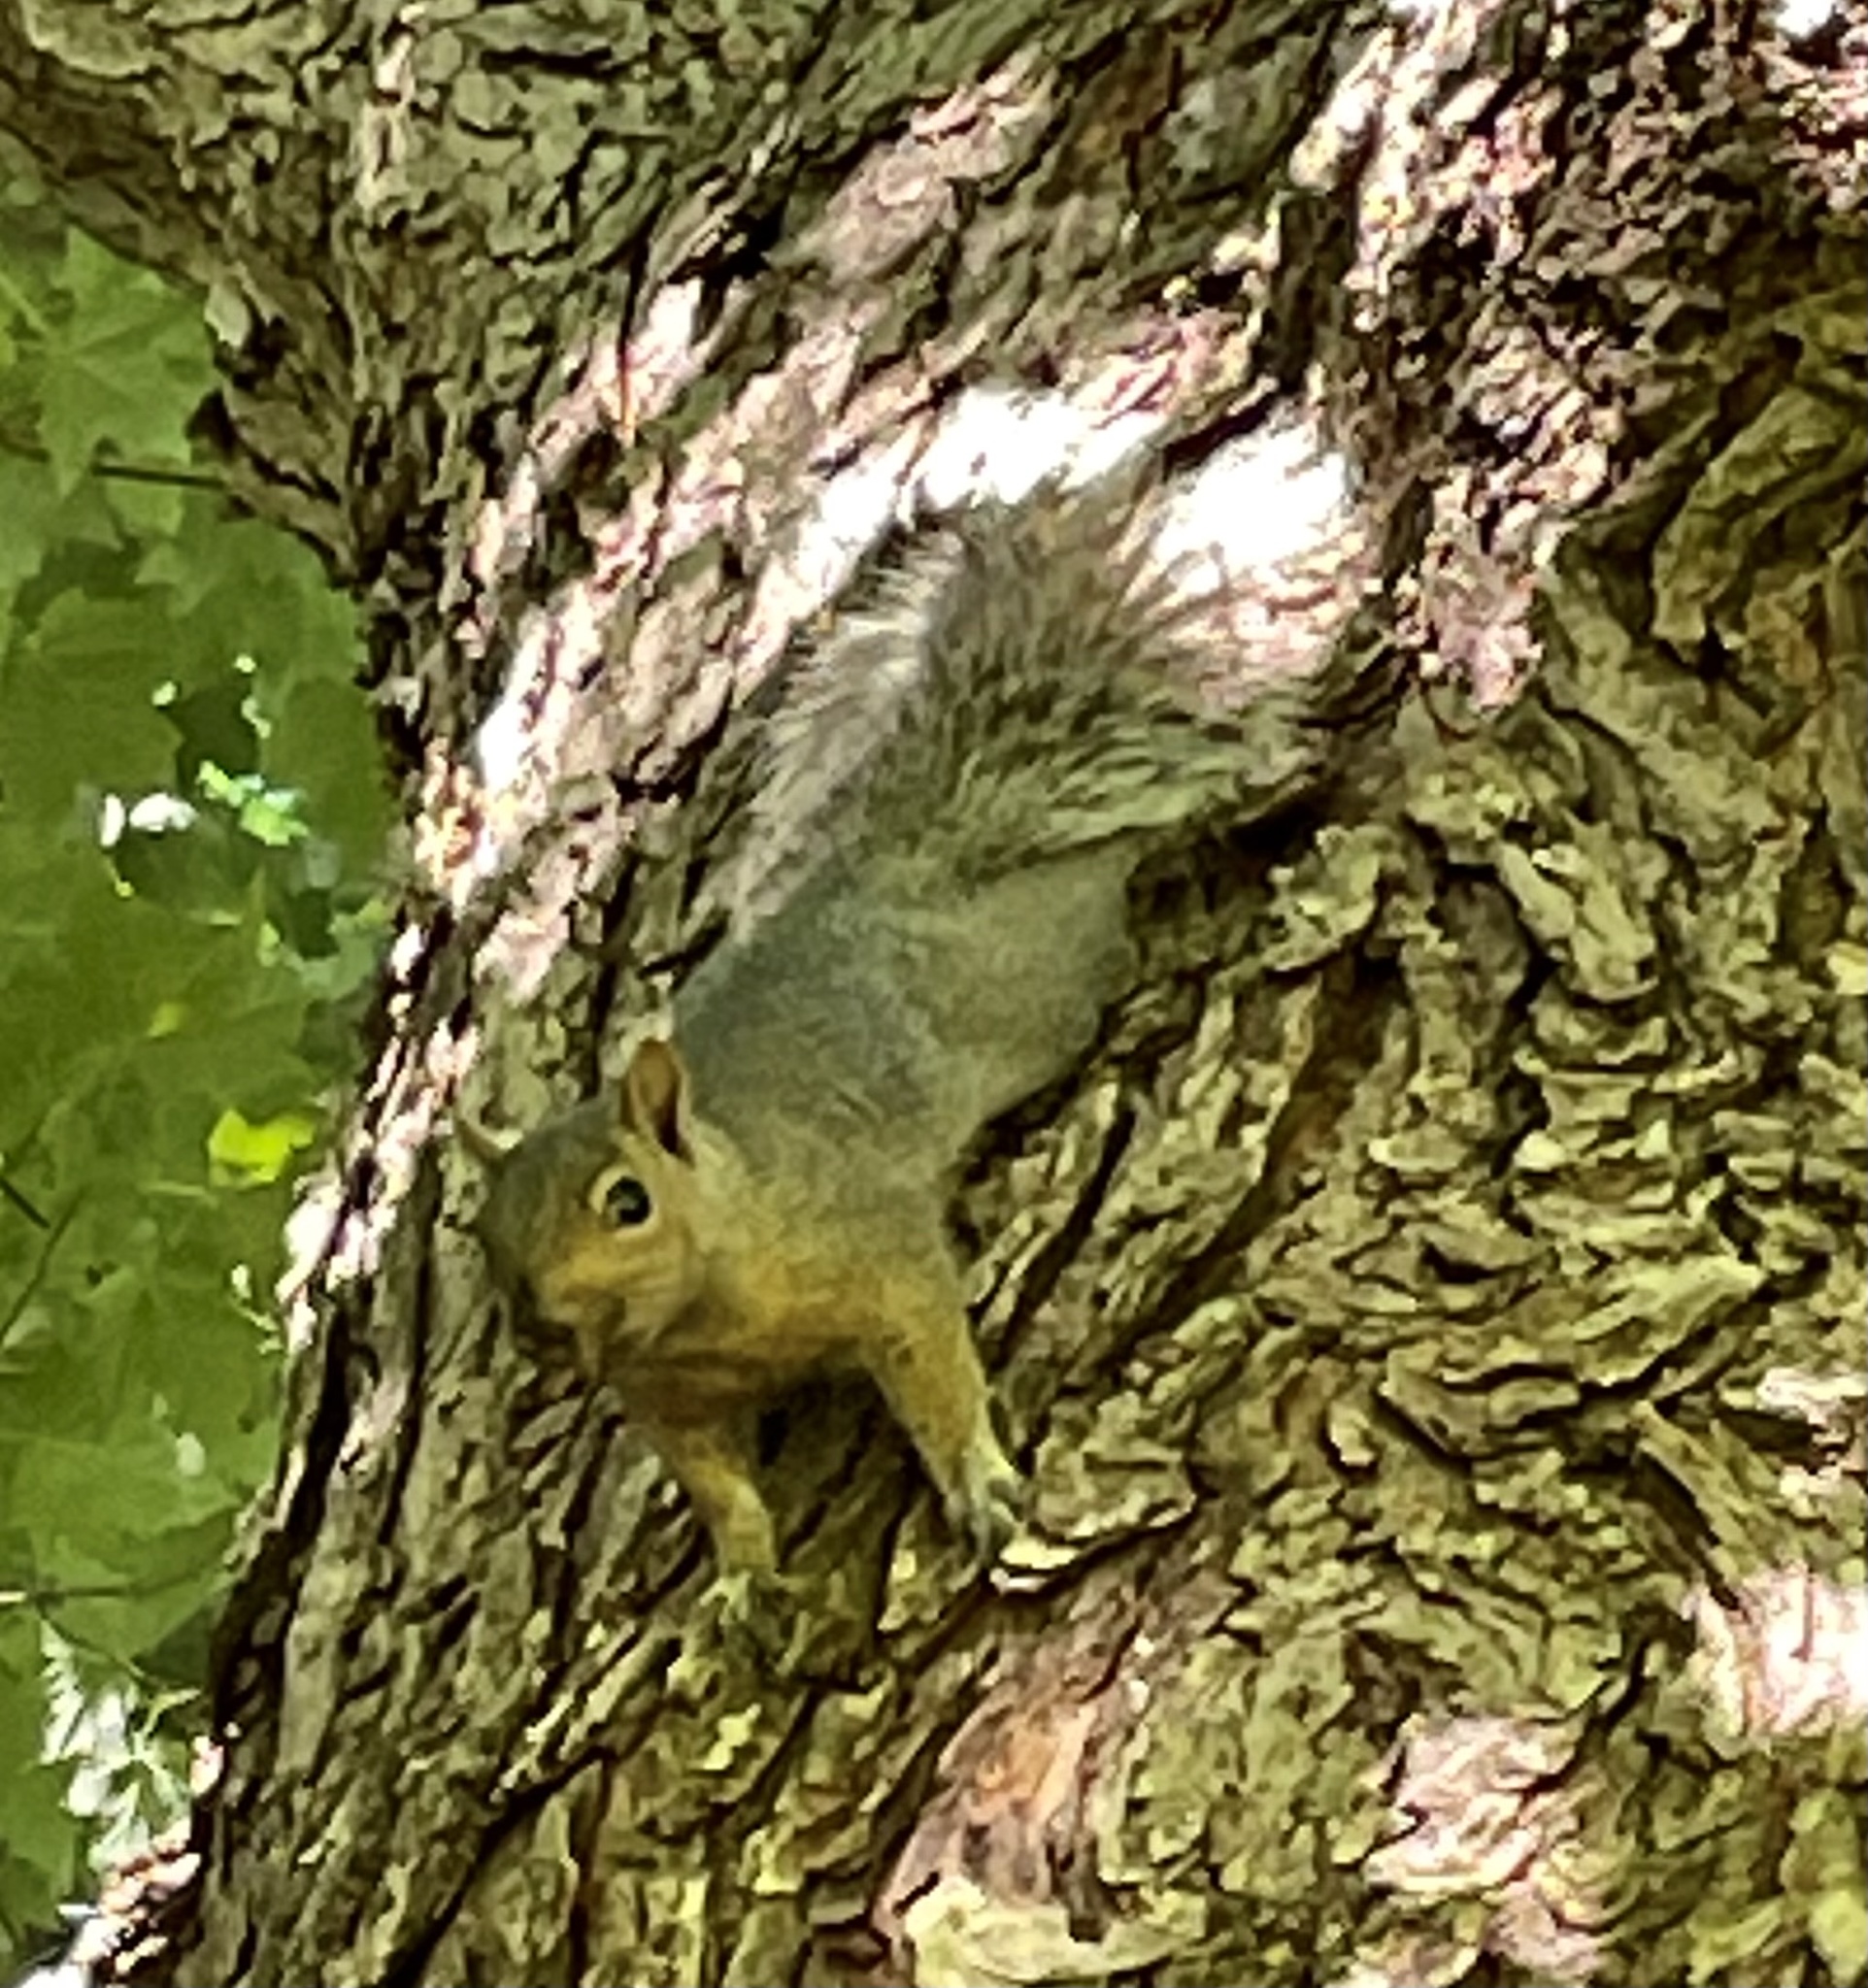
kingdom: Animalia
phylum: Chordata
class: Mammalia
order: Rodentia
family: Sciuridae
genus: Sciurus
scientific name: Sciurus carolinensis
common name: Eastern gray squirrel
